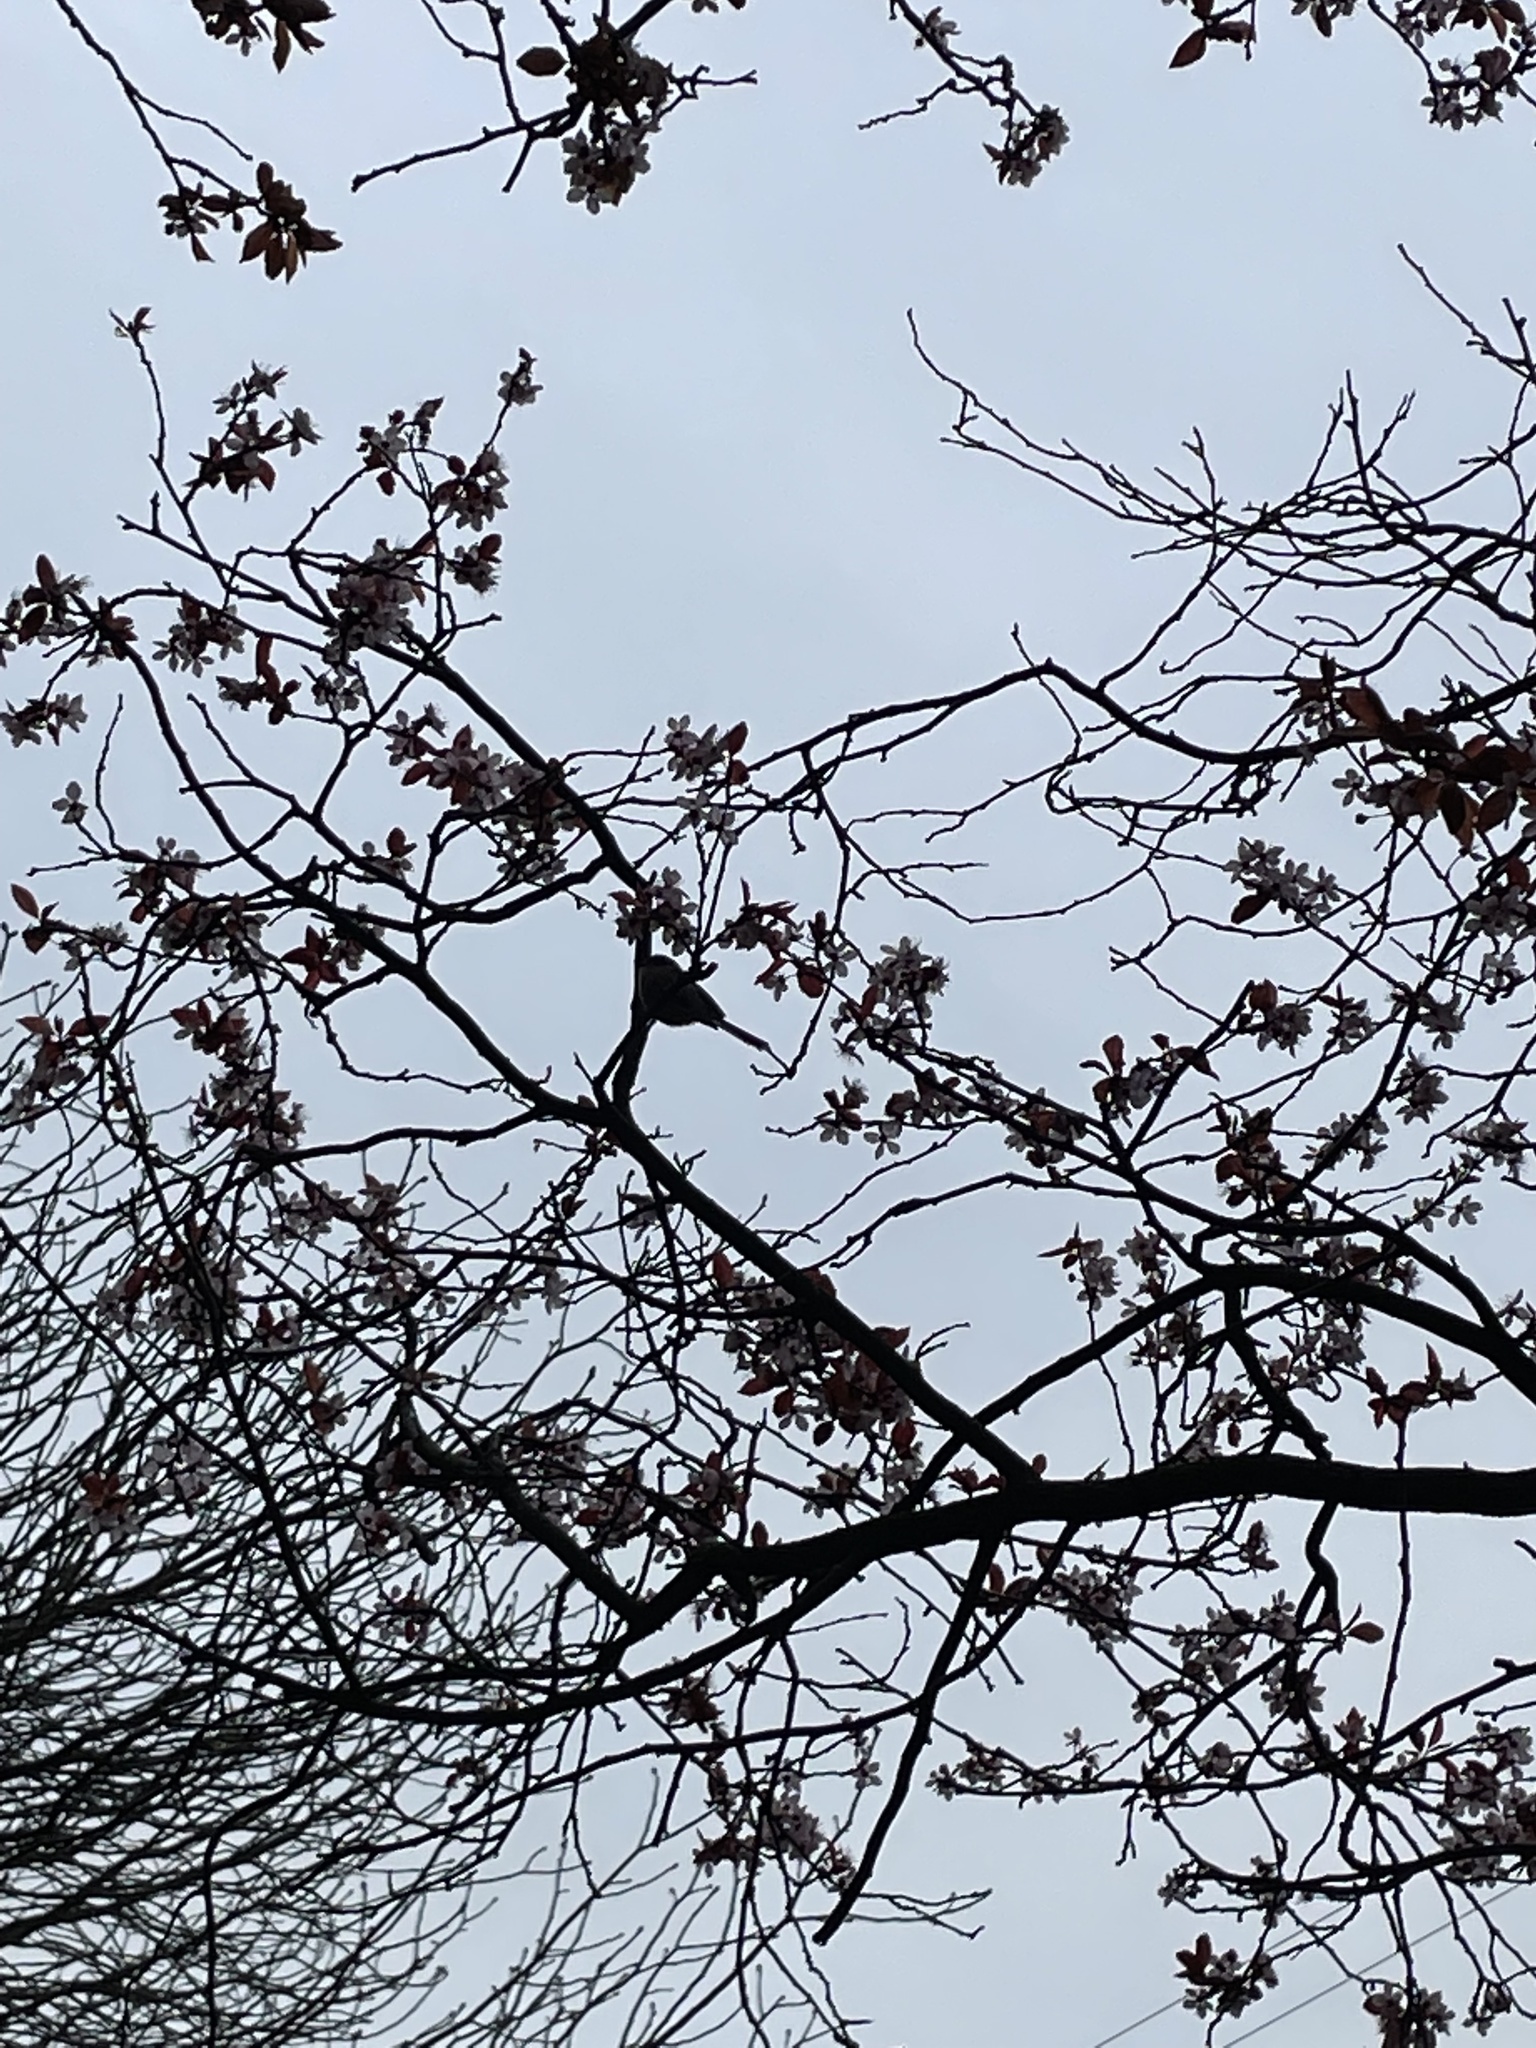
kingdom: Animalia
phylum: Chordata
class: Aves
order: Passeriformes
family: Paridae
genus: Poecile
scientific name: Poecile rufescens
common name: Chestnut-backed chickadee
